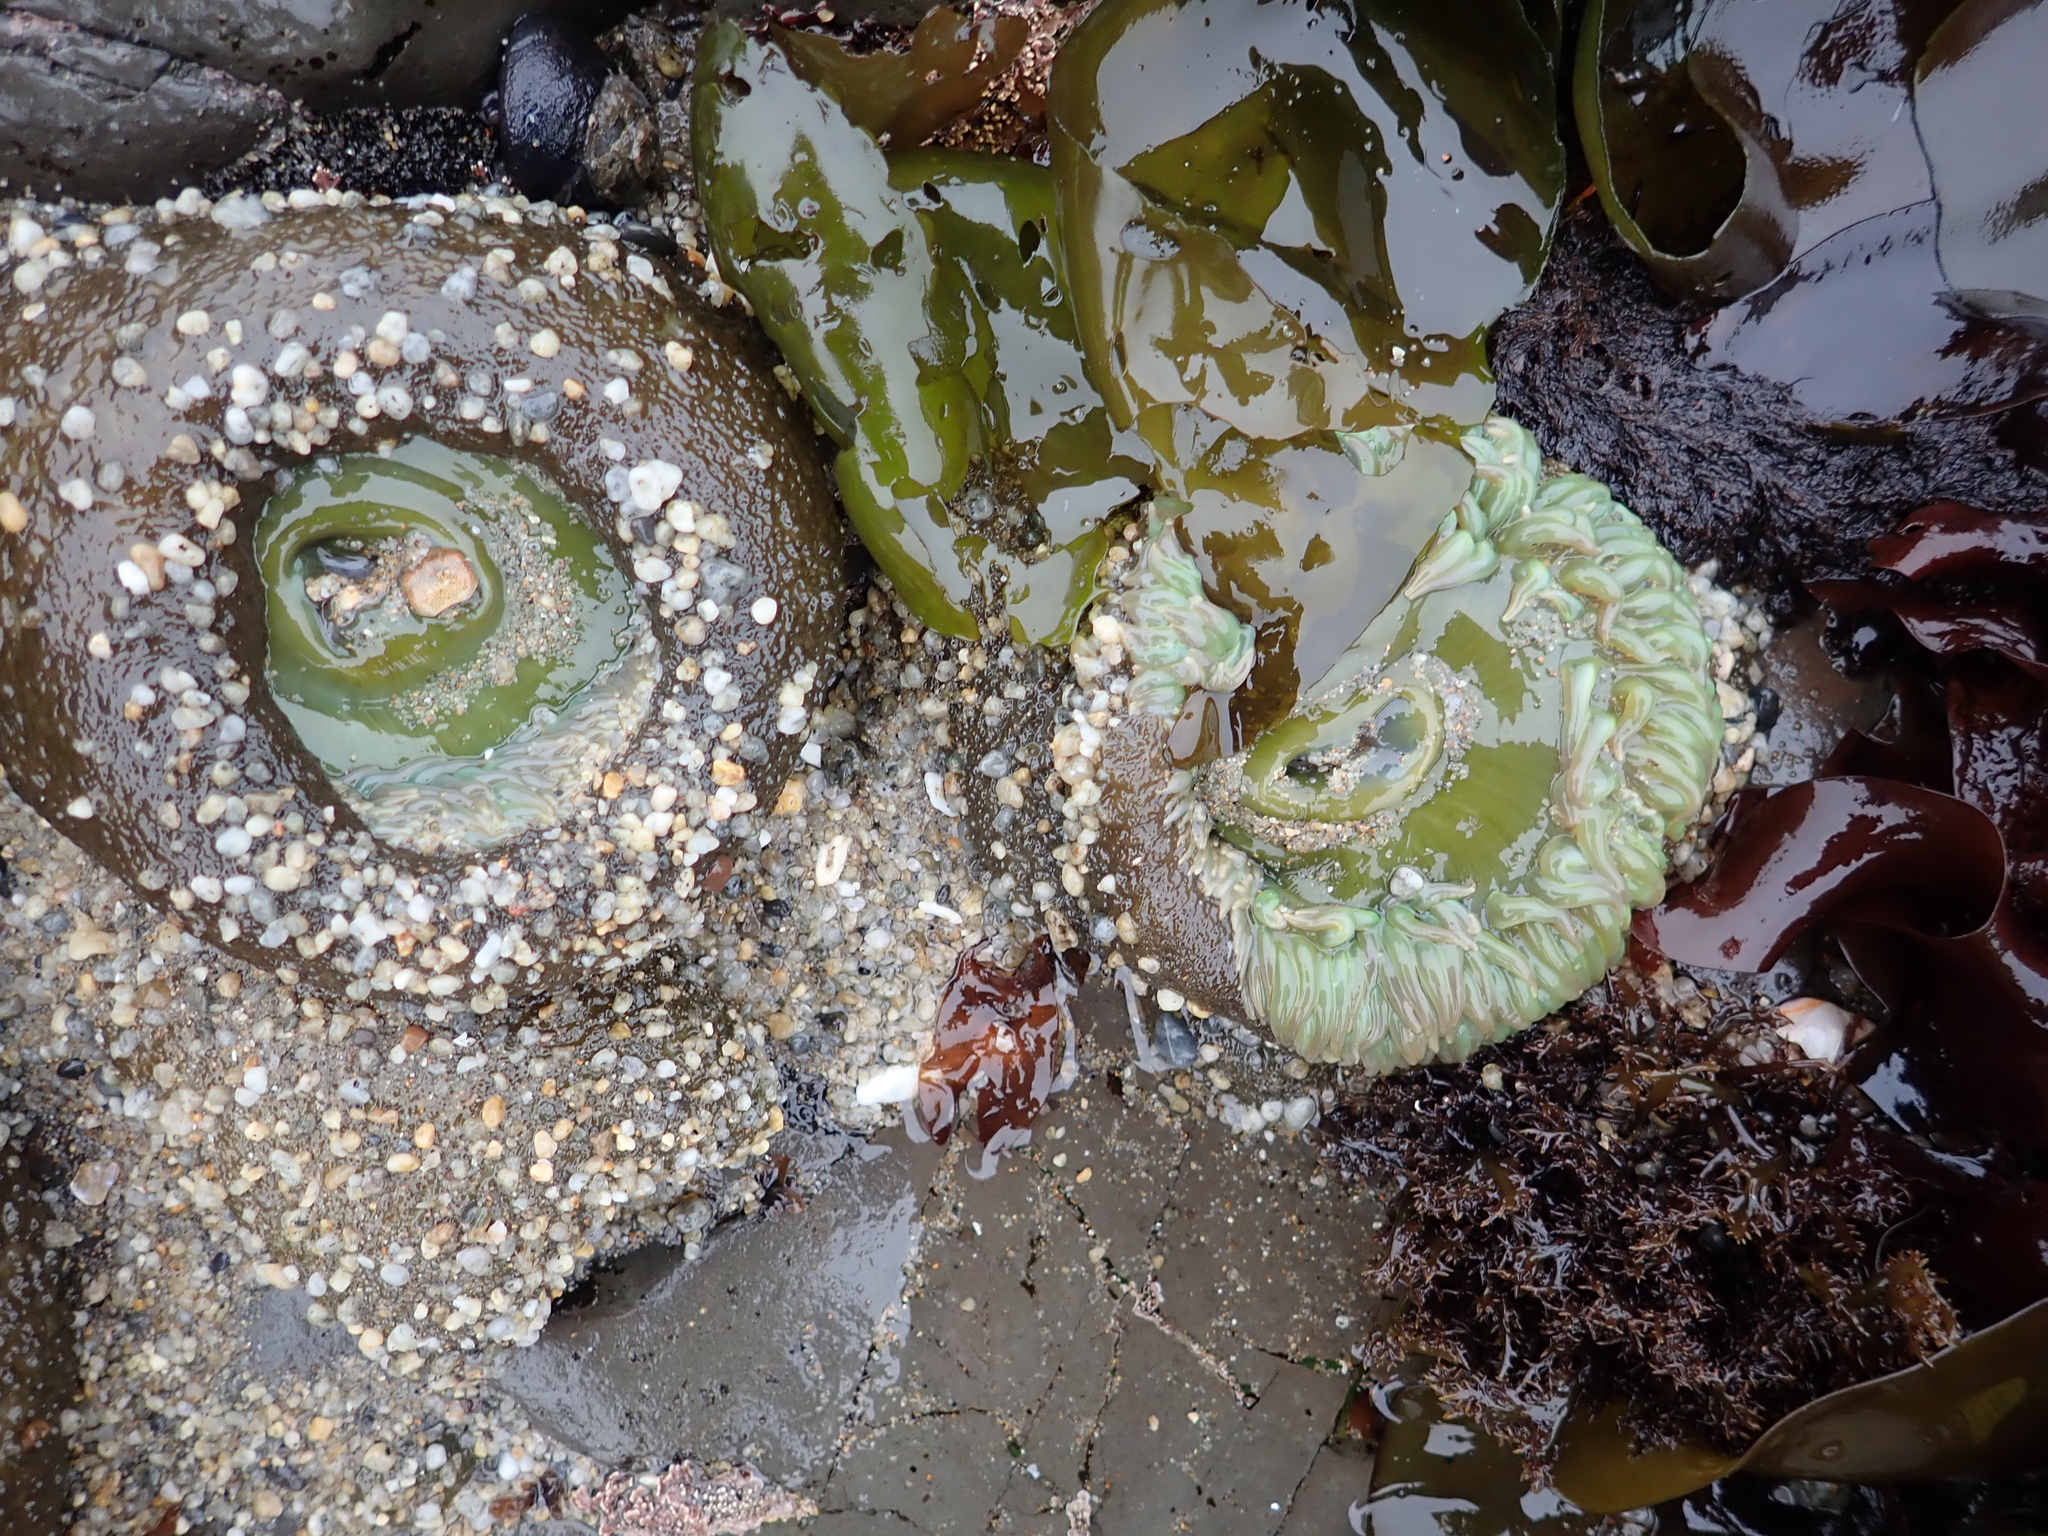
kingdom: Animalia
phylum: Cnidaria
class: Anthozoa
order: Actiniaria
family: Actiniidae
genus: Anthopleura
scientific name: Anthopleura xanthogrammica
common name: Giant green anemone
